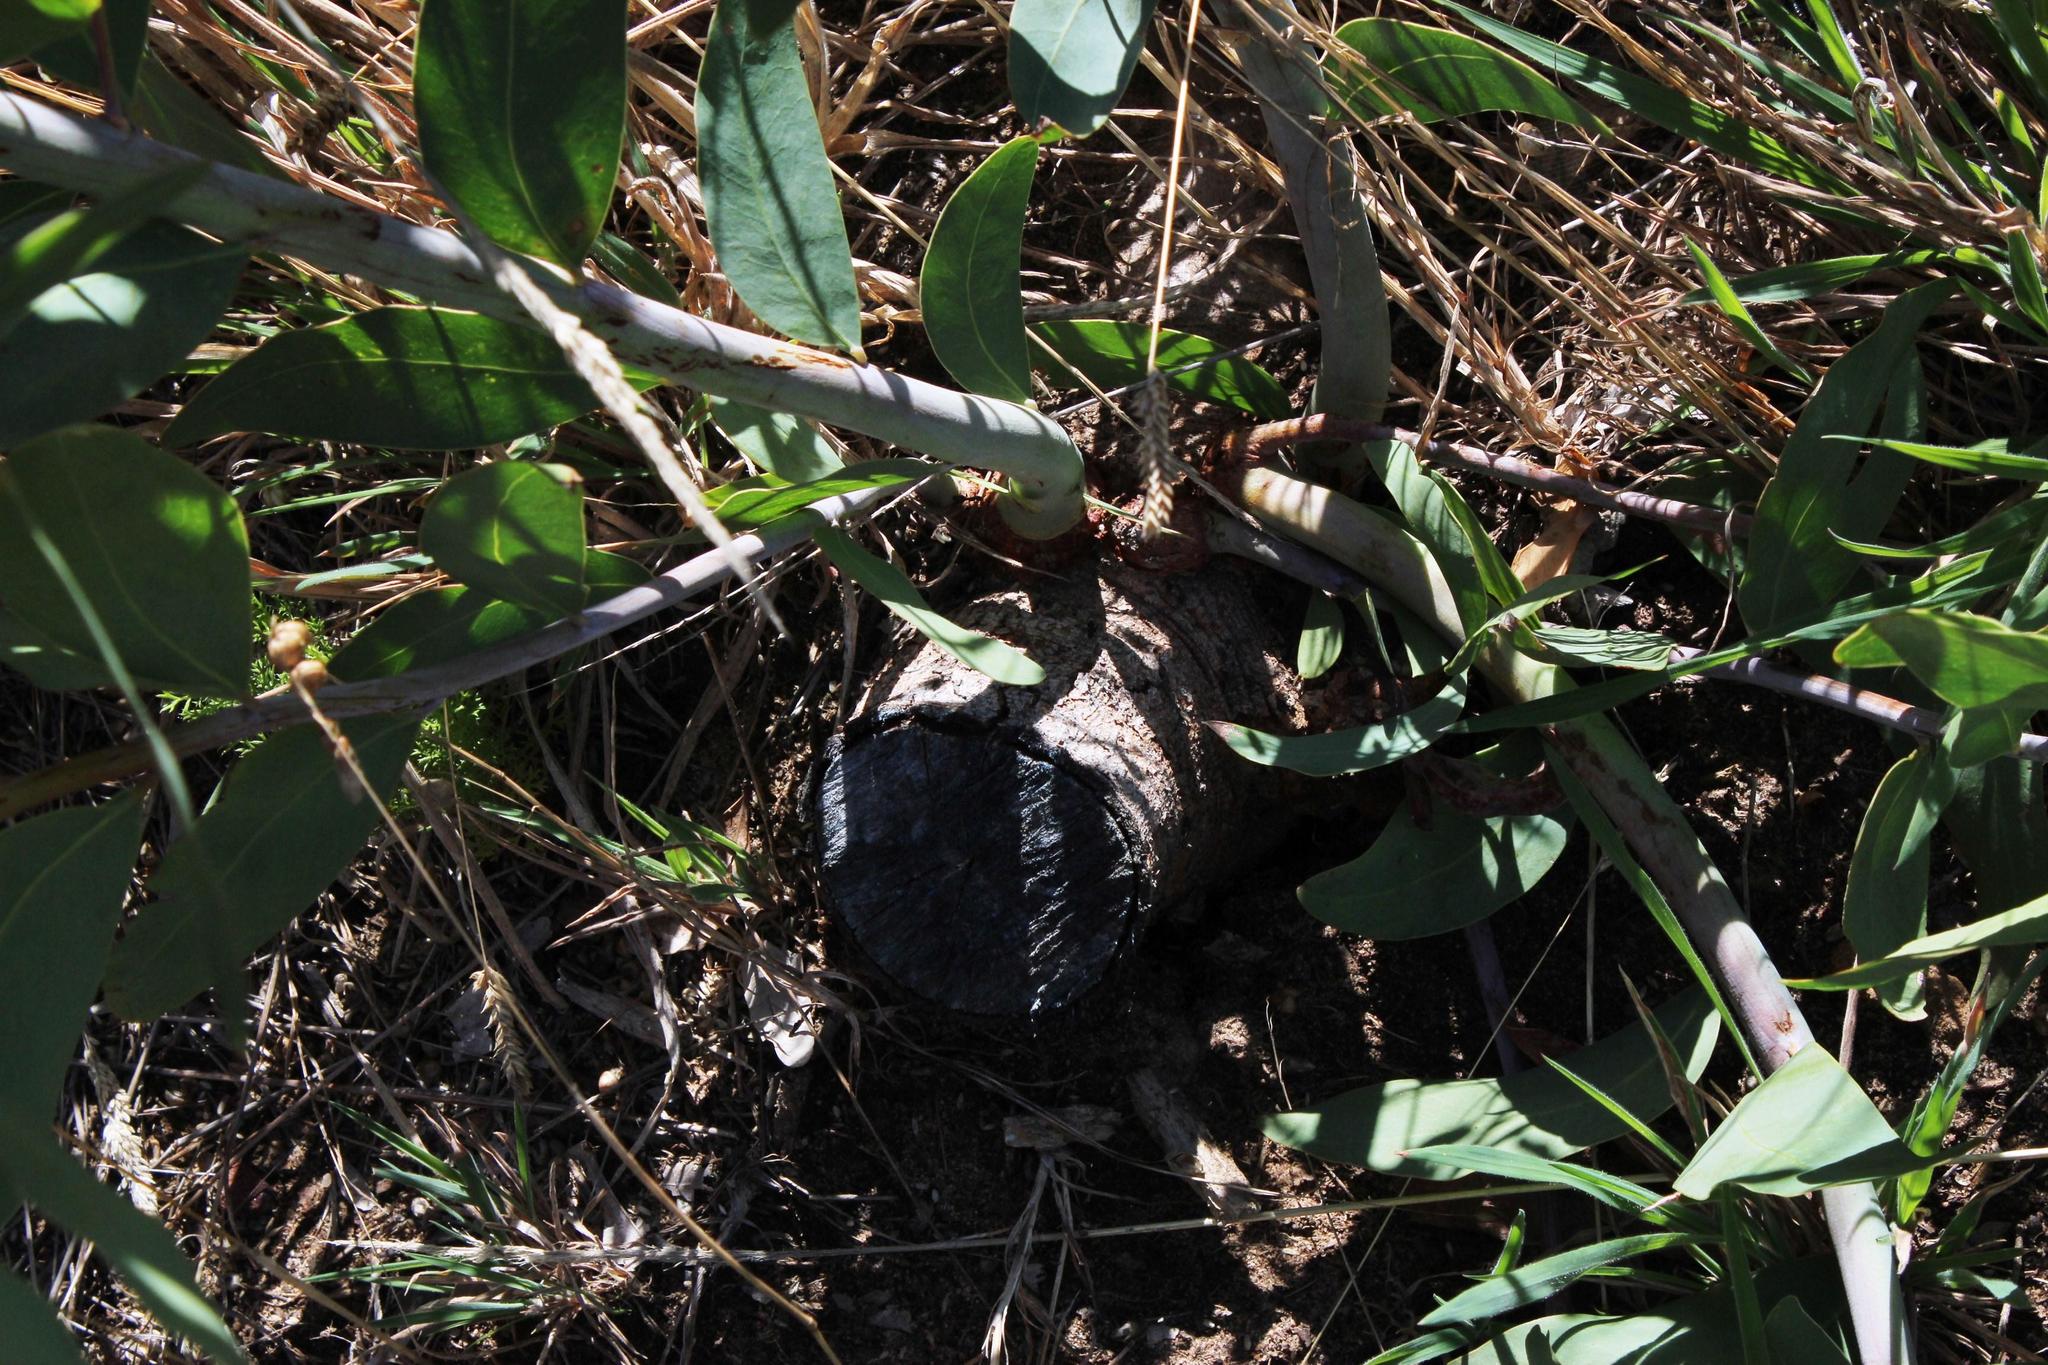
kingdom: Plantae
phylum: Tracheophyta
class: Magnoliopsida
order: Fabales
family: Fabaceae
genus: Acacia
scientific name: Acacia falciformis
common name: Tanning wattle
